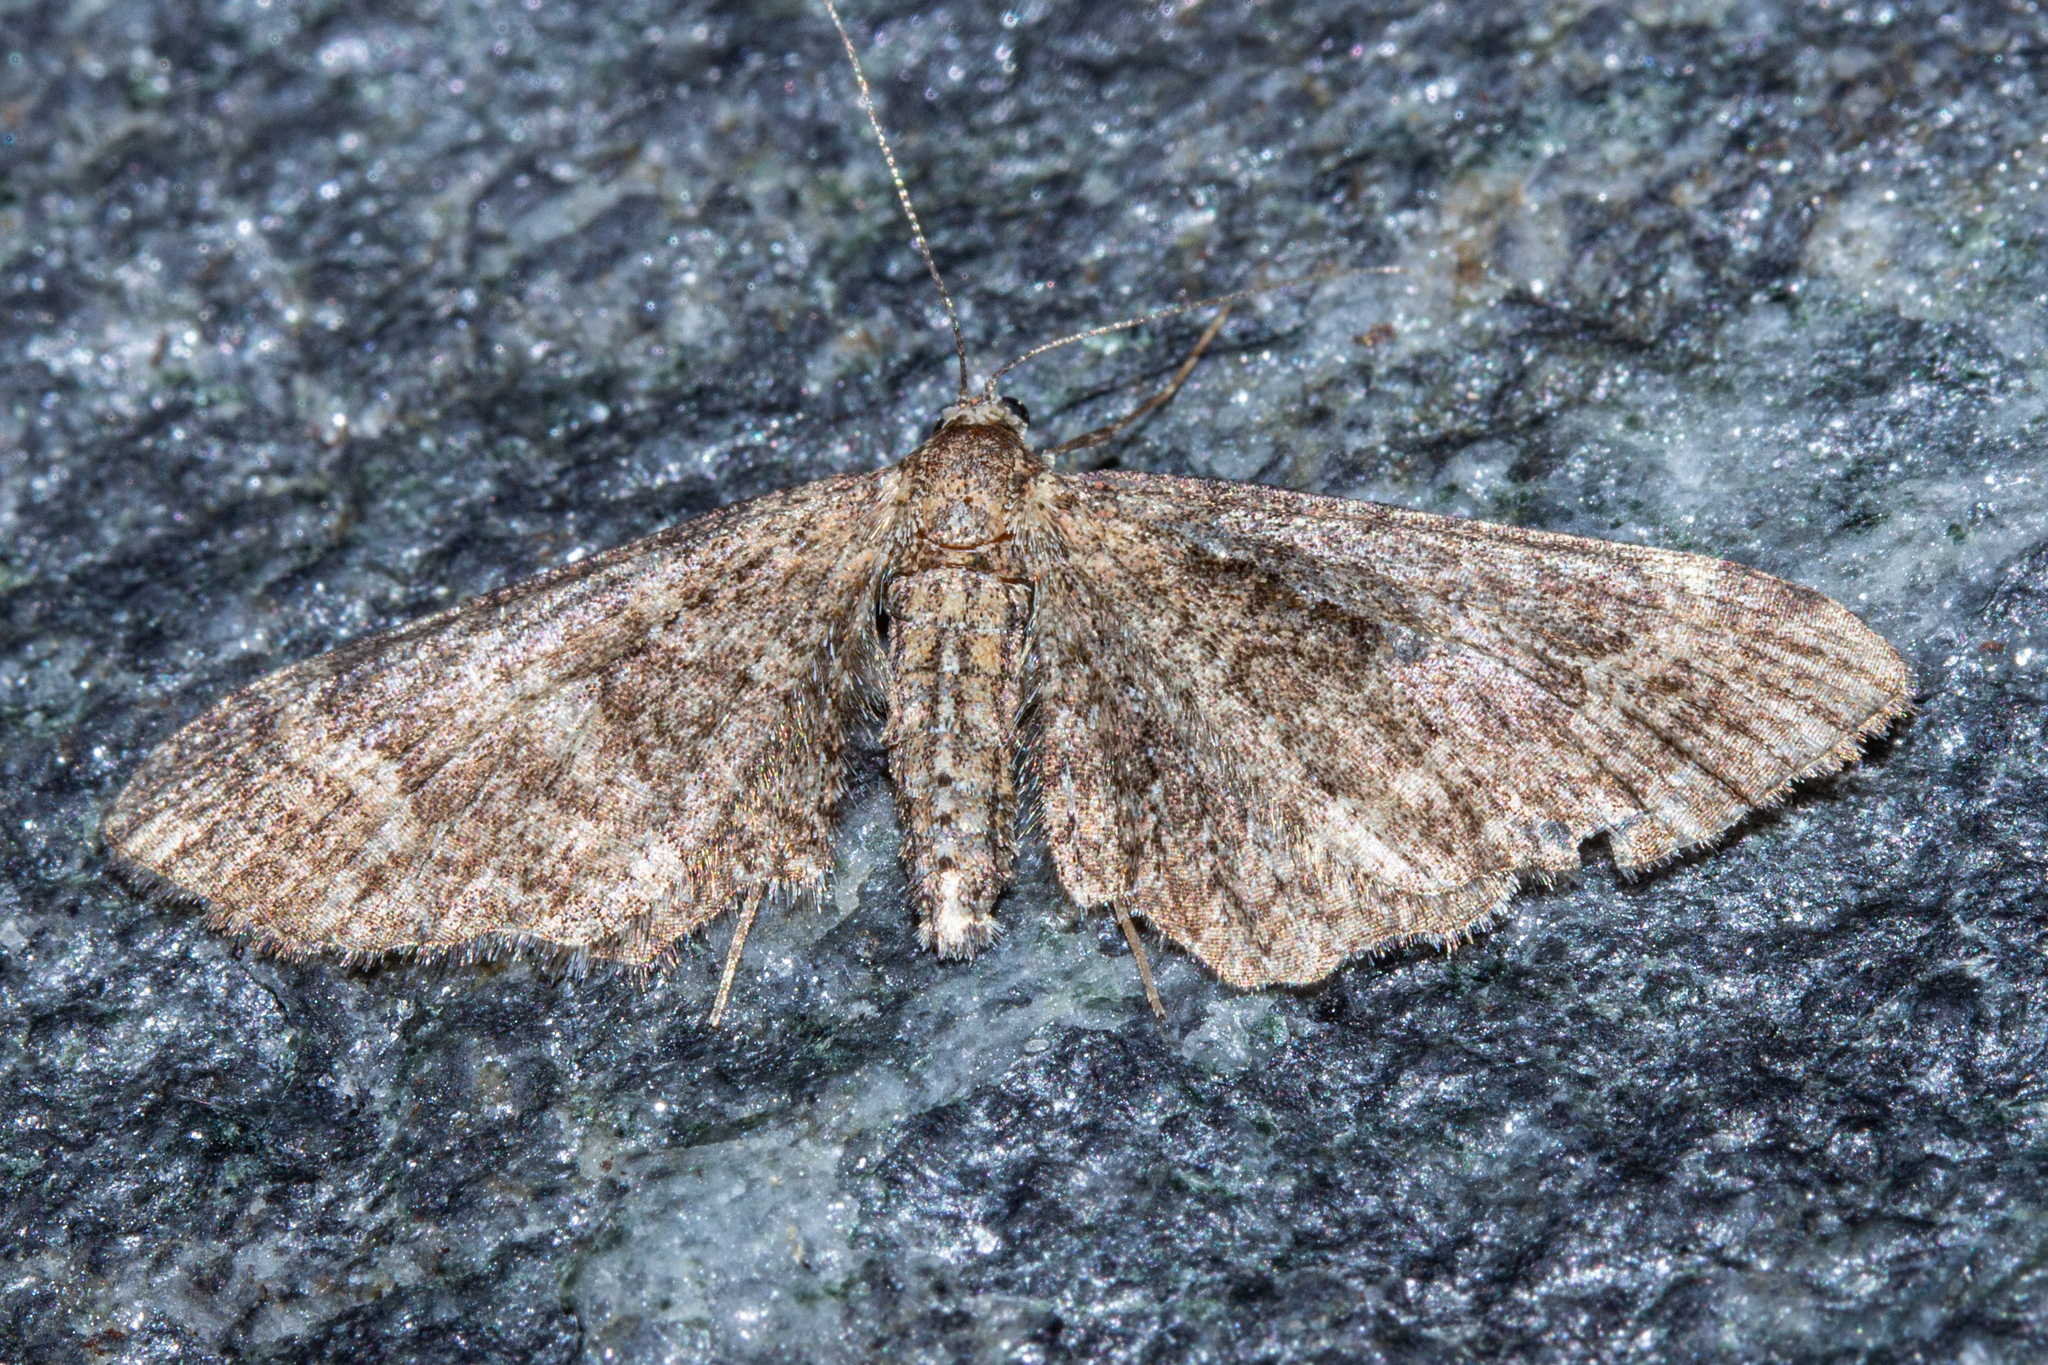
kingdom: Animalia
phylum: Arthropoda
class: Insecta
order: Lepidoptera
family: Geometridae
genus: Pasiphila
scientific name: Pasiphila heighwayi
